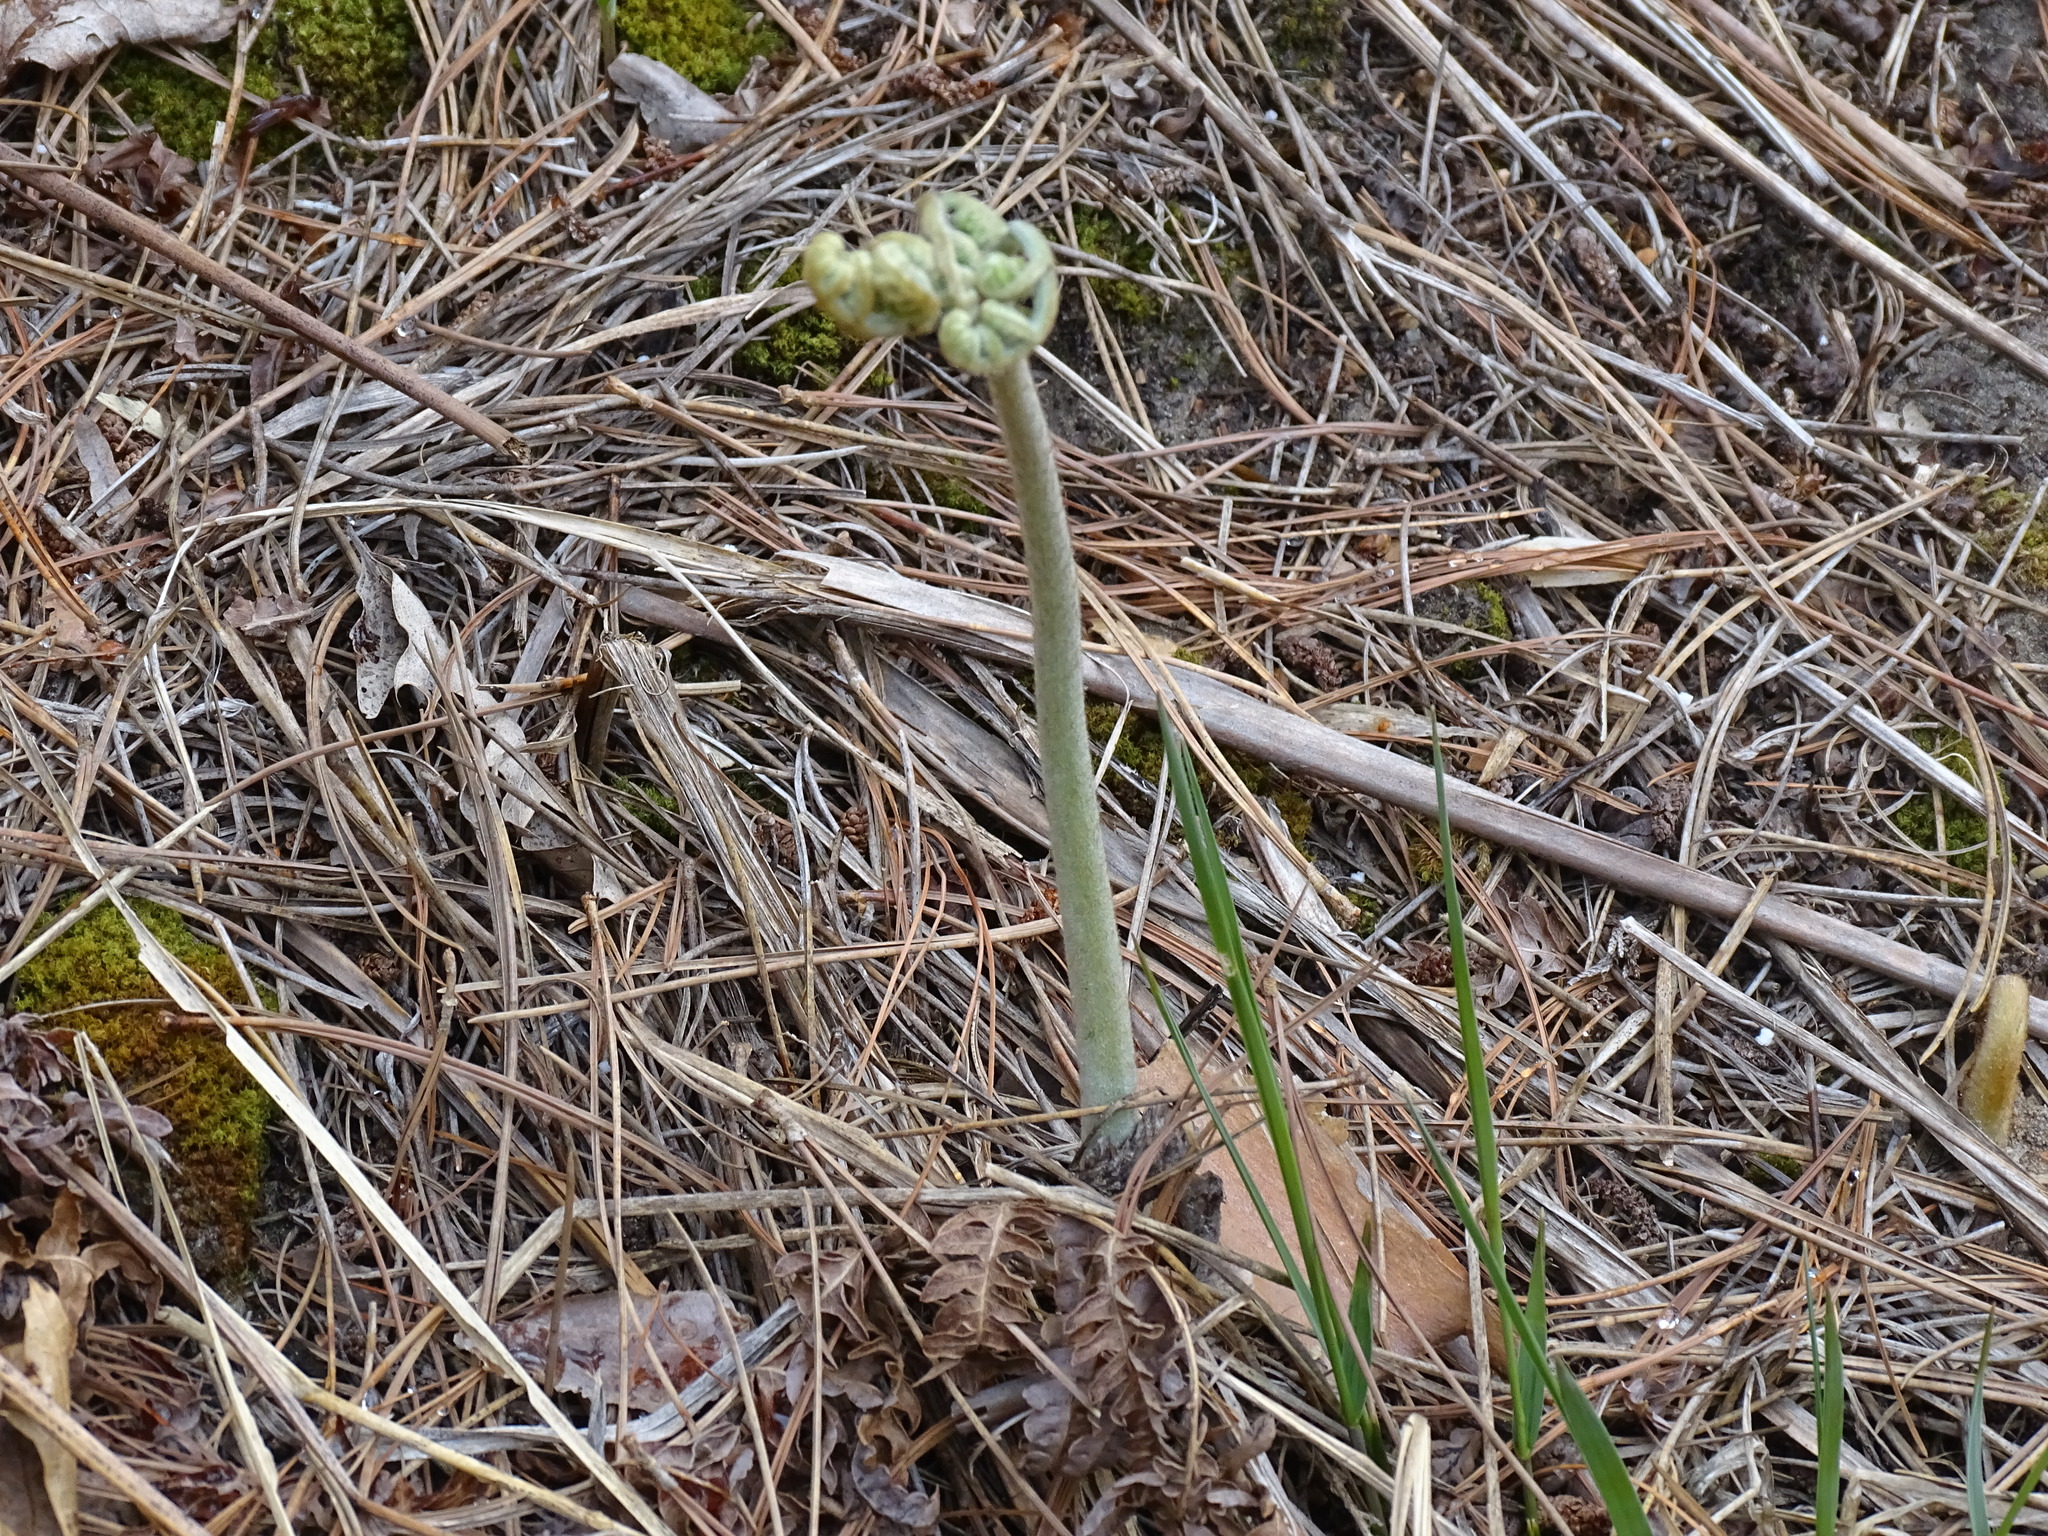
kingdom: Plantae
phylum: Tracheophyta
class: Polypodiopsida
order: Polypodiales
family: Dennstaedtiaceae
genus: Pteridium
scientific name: Pteridium aquilinum
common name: Bracken
